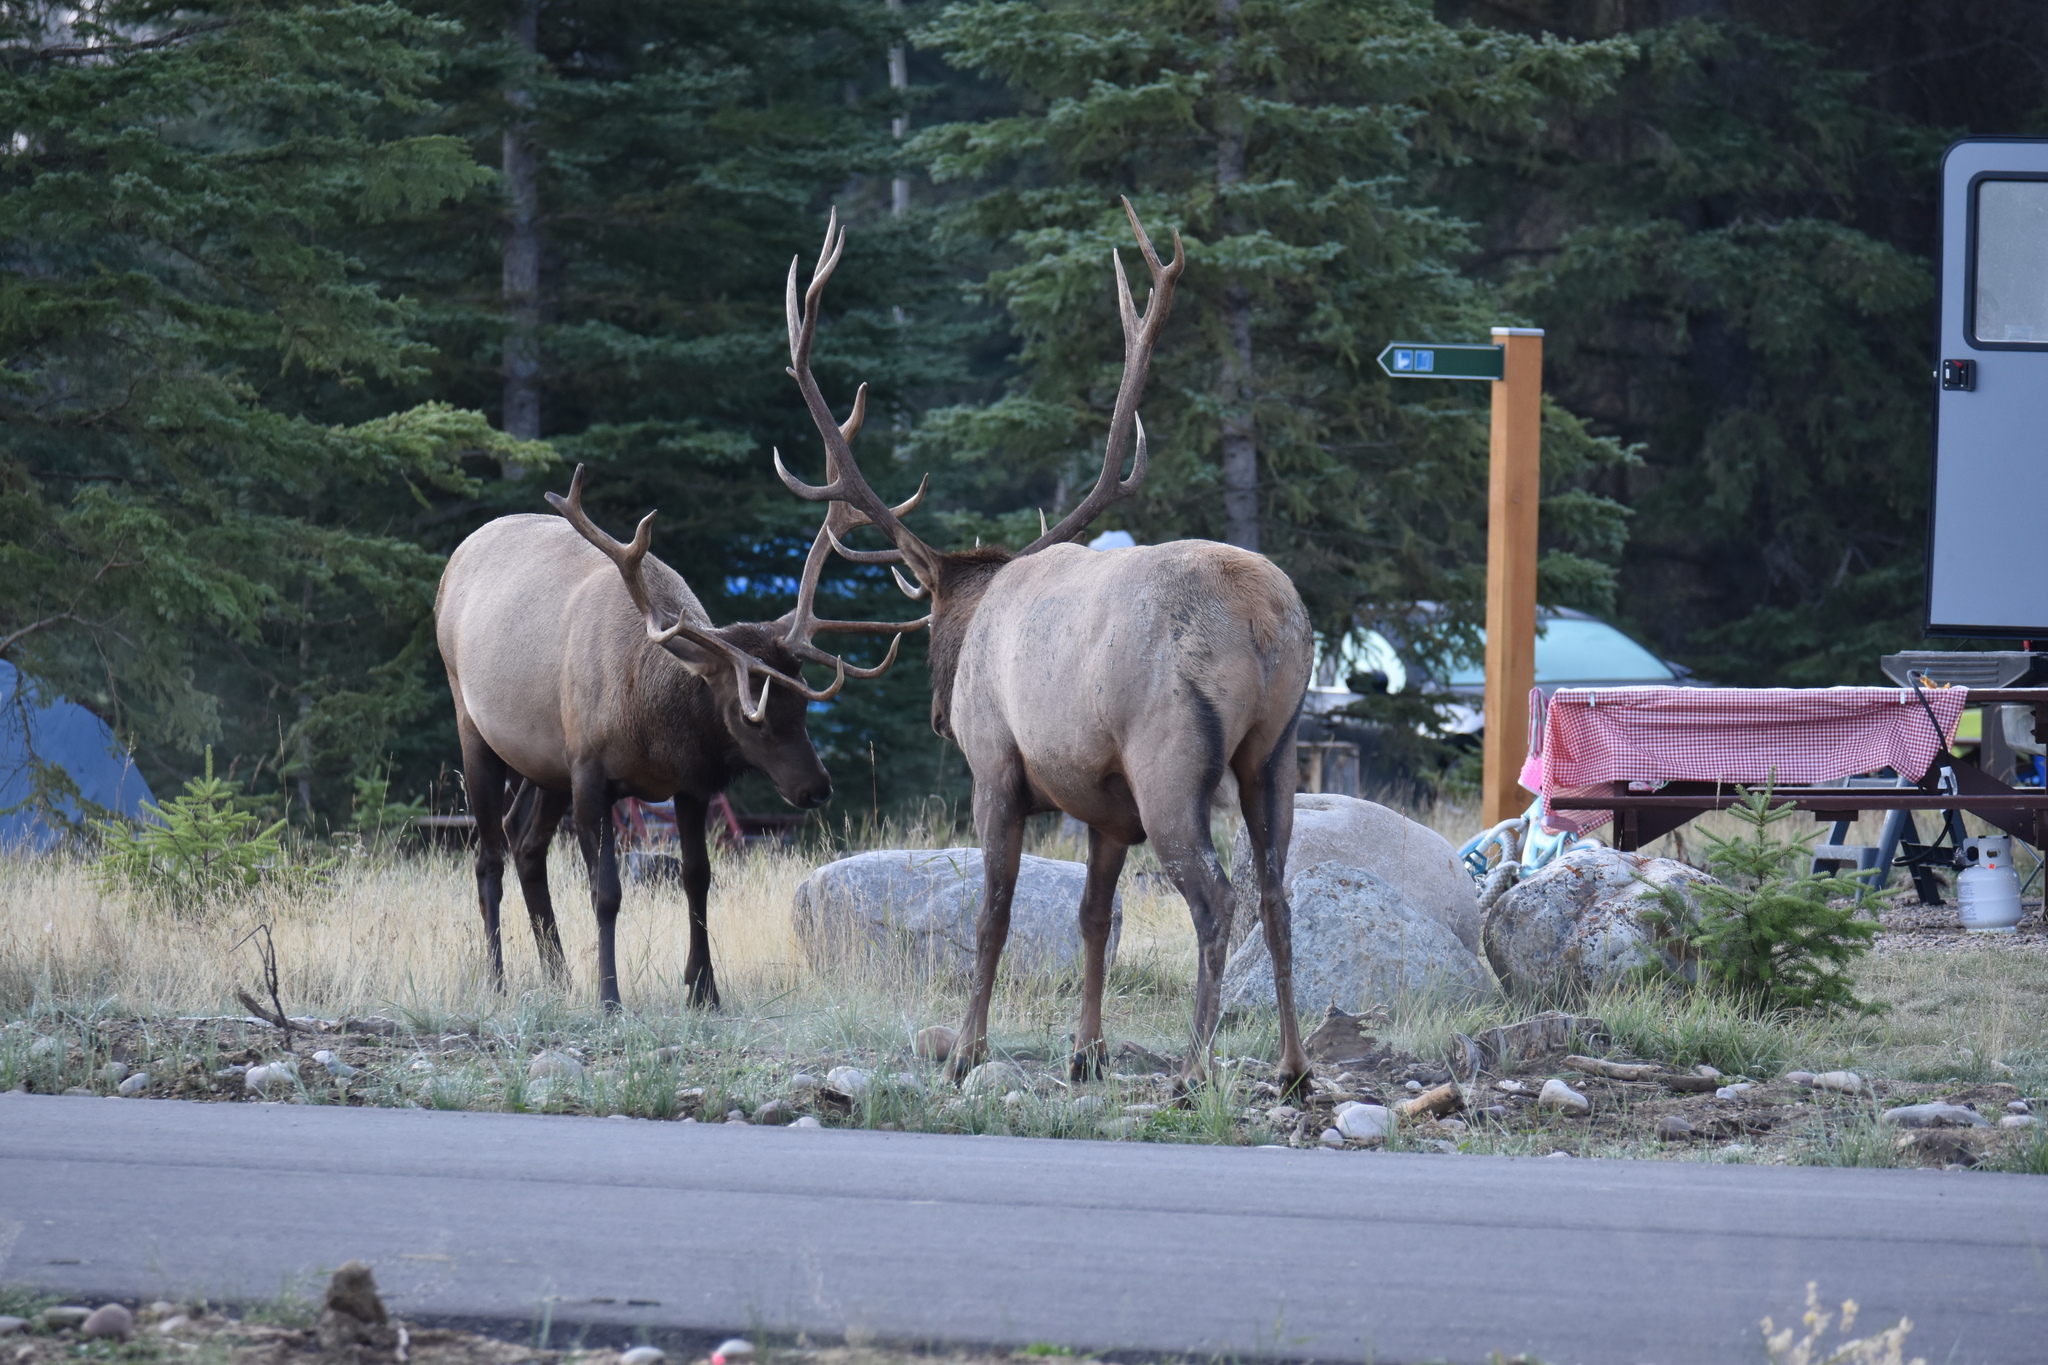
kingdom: Animalia
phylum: Chordata
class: Mammalia
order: Artiodactyla
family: Cervidae
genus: Cervus
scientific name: Cervus elaphus
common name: Red deer
